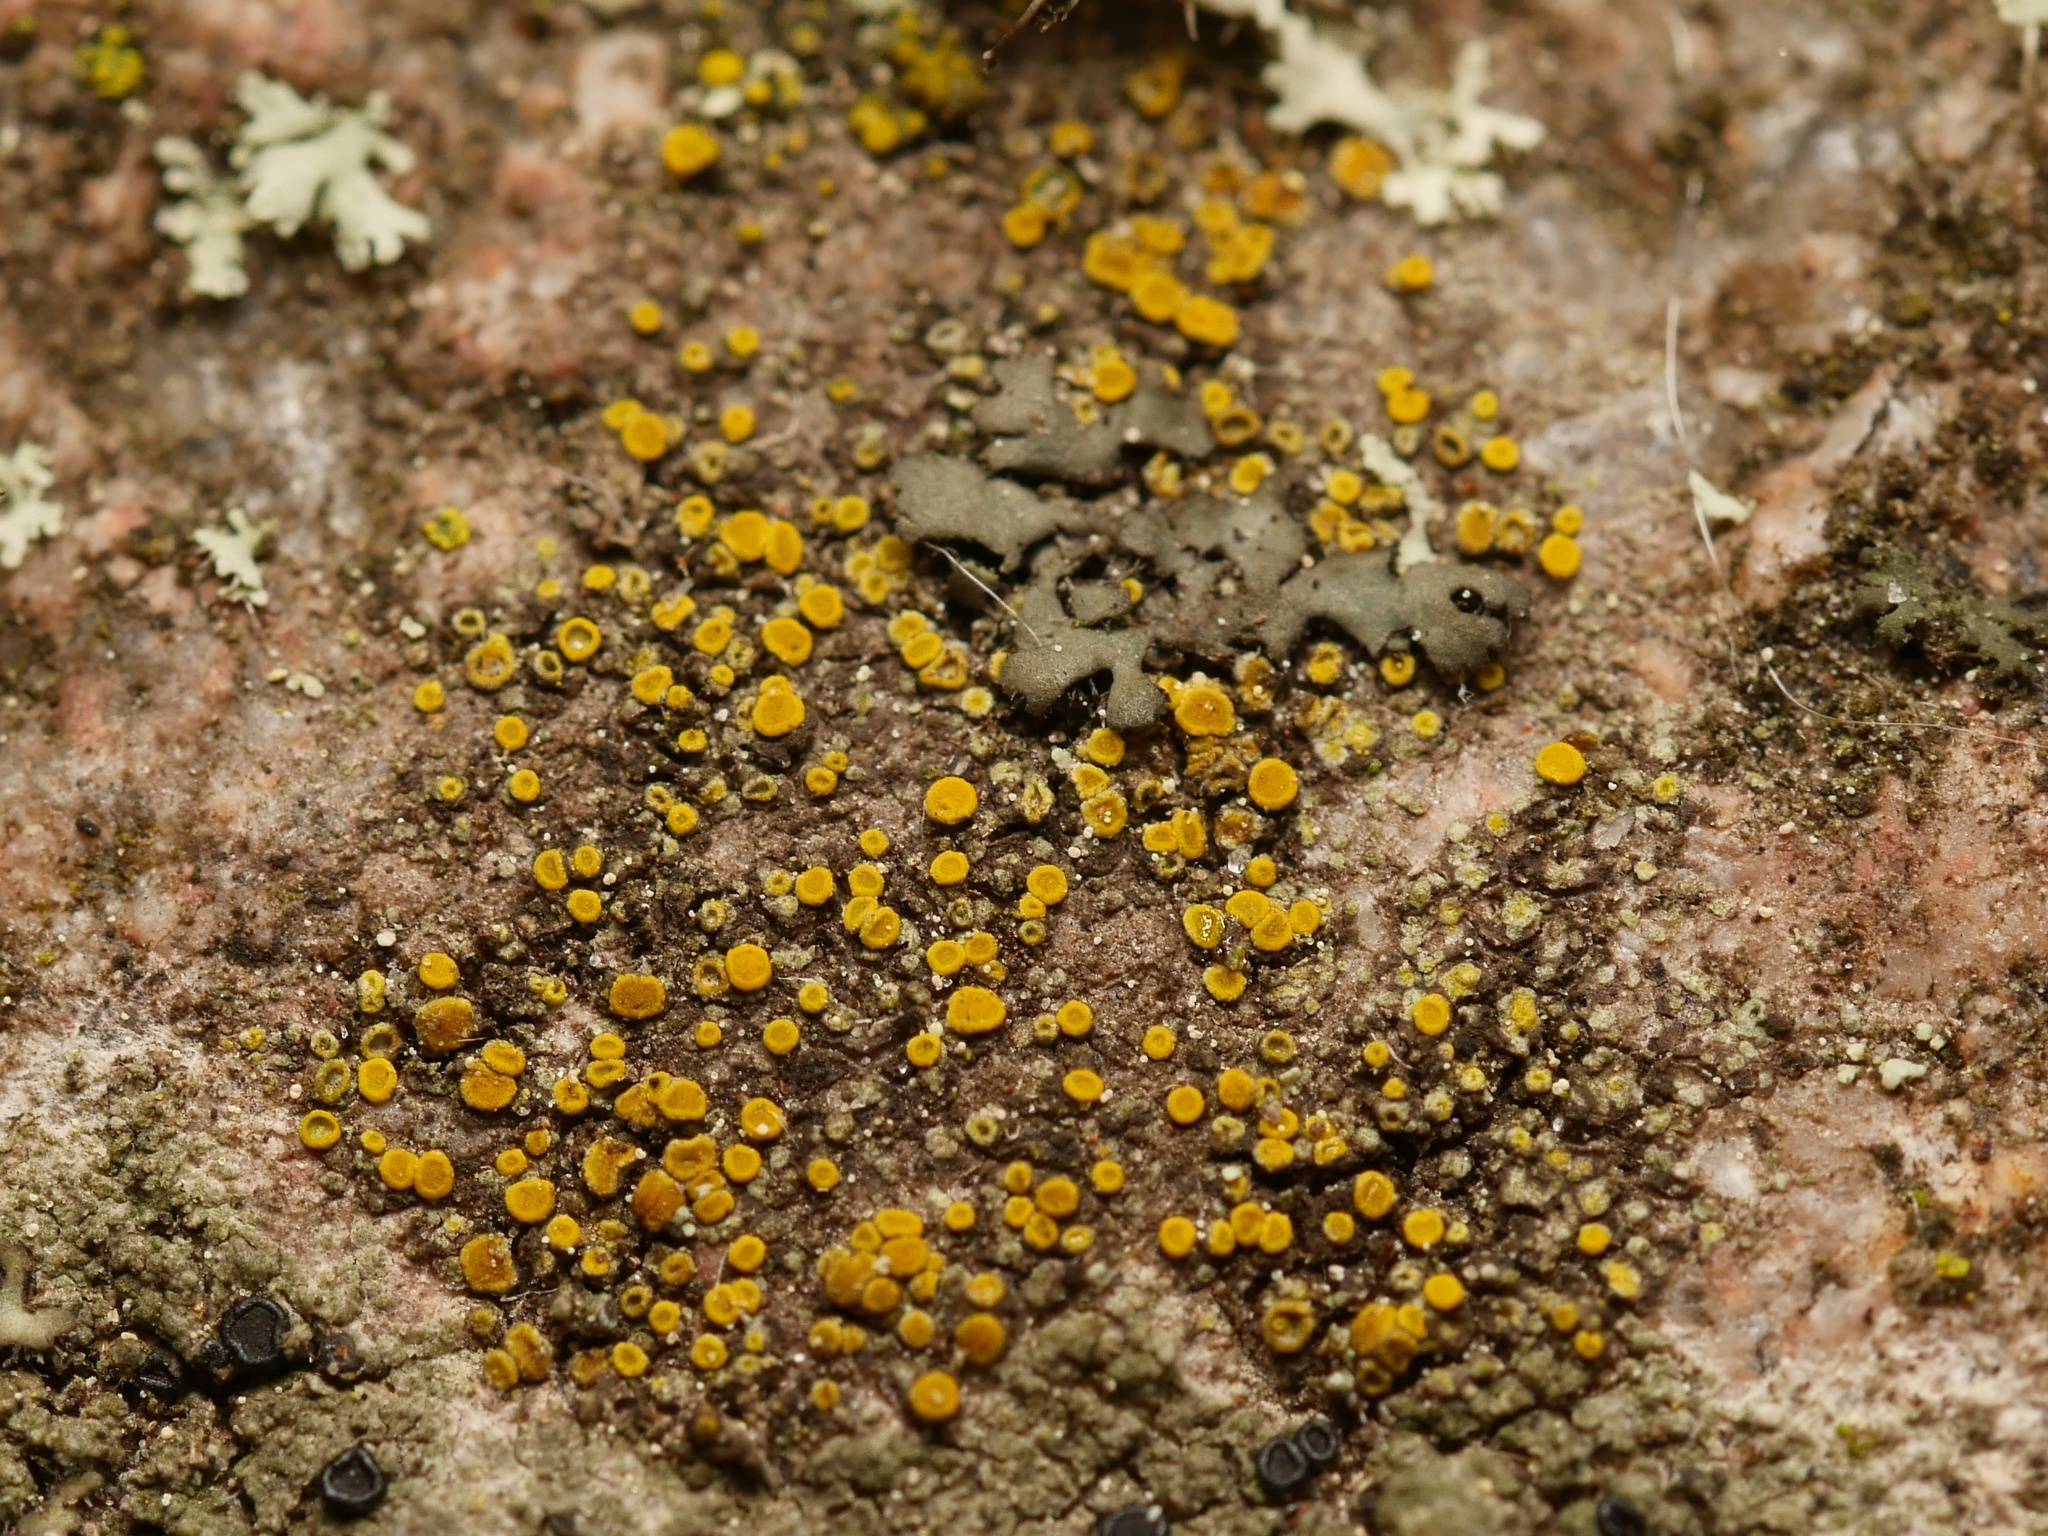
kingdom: Fungi
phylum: Ascomycota
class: Candelariomycetes
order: Candelariales
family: Candelariaceae
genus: Candelariella
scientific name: Candelariella aurella
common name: Hidden goldspeck lichen
